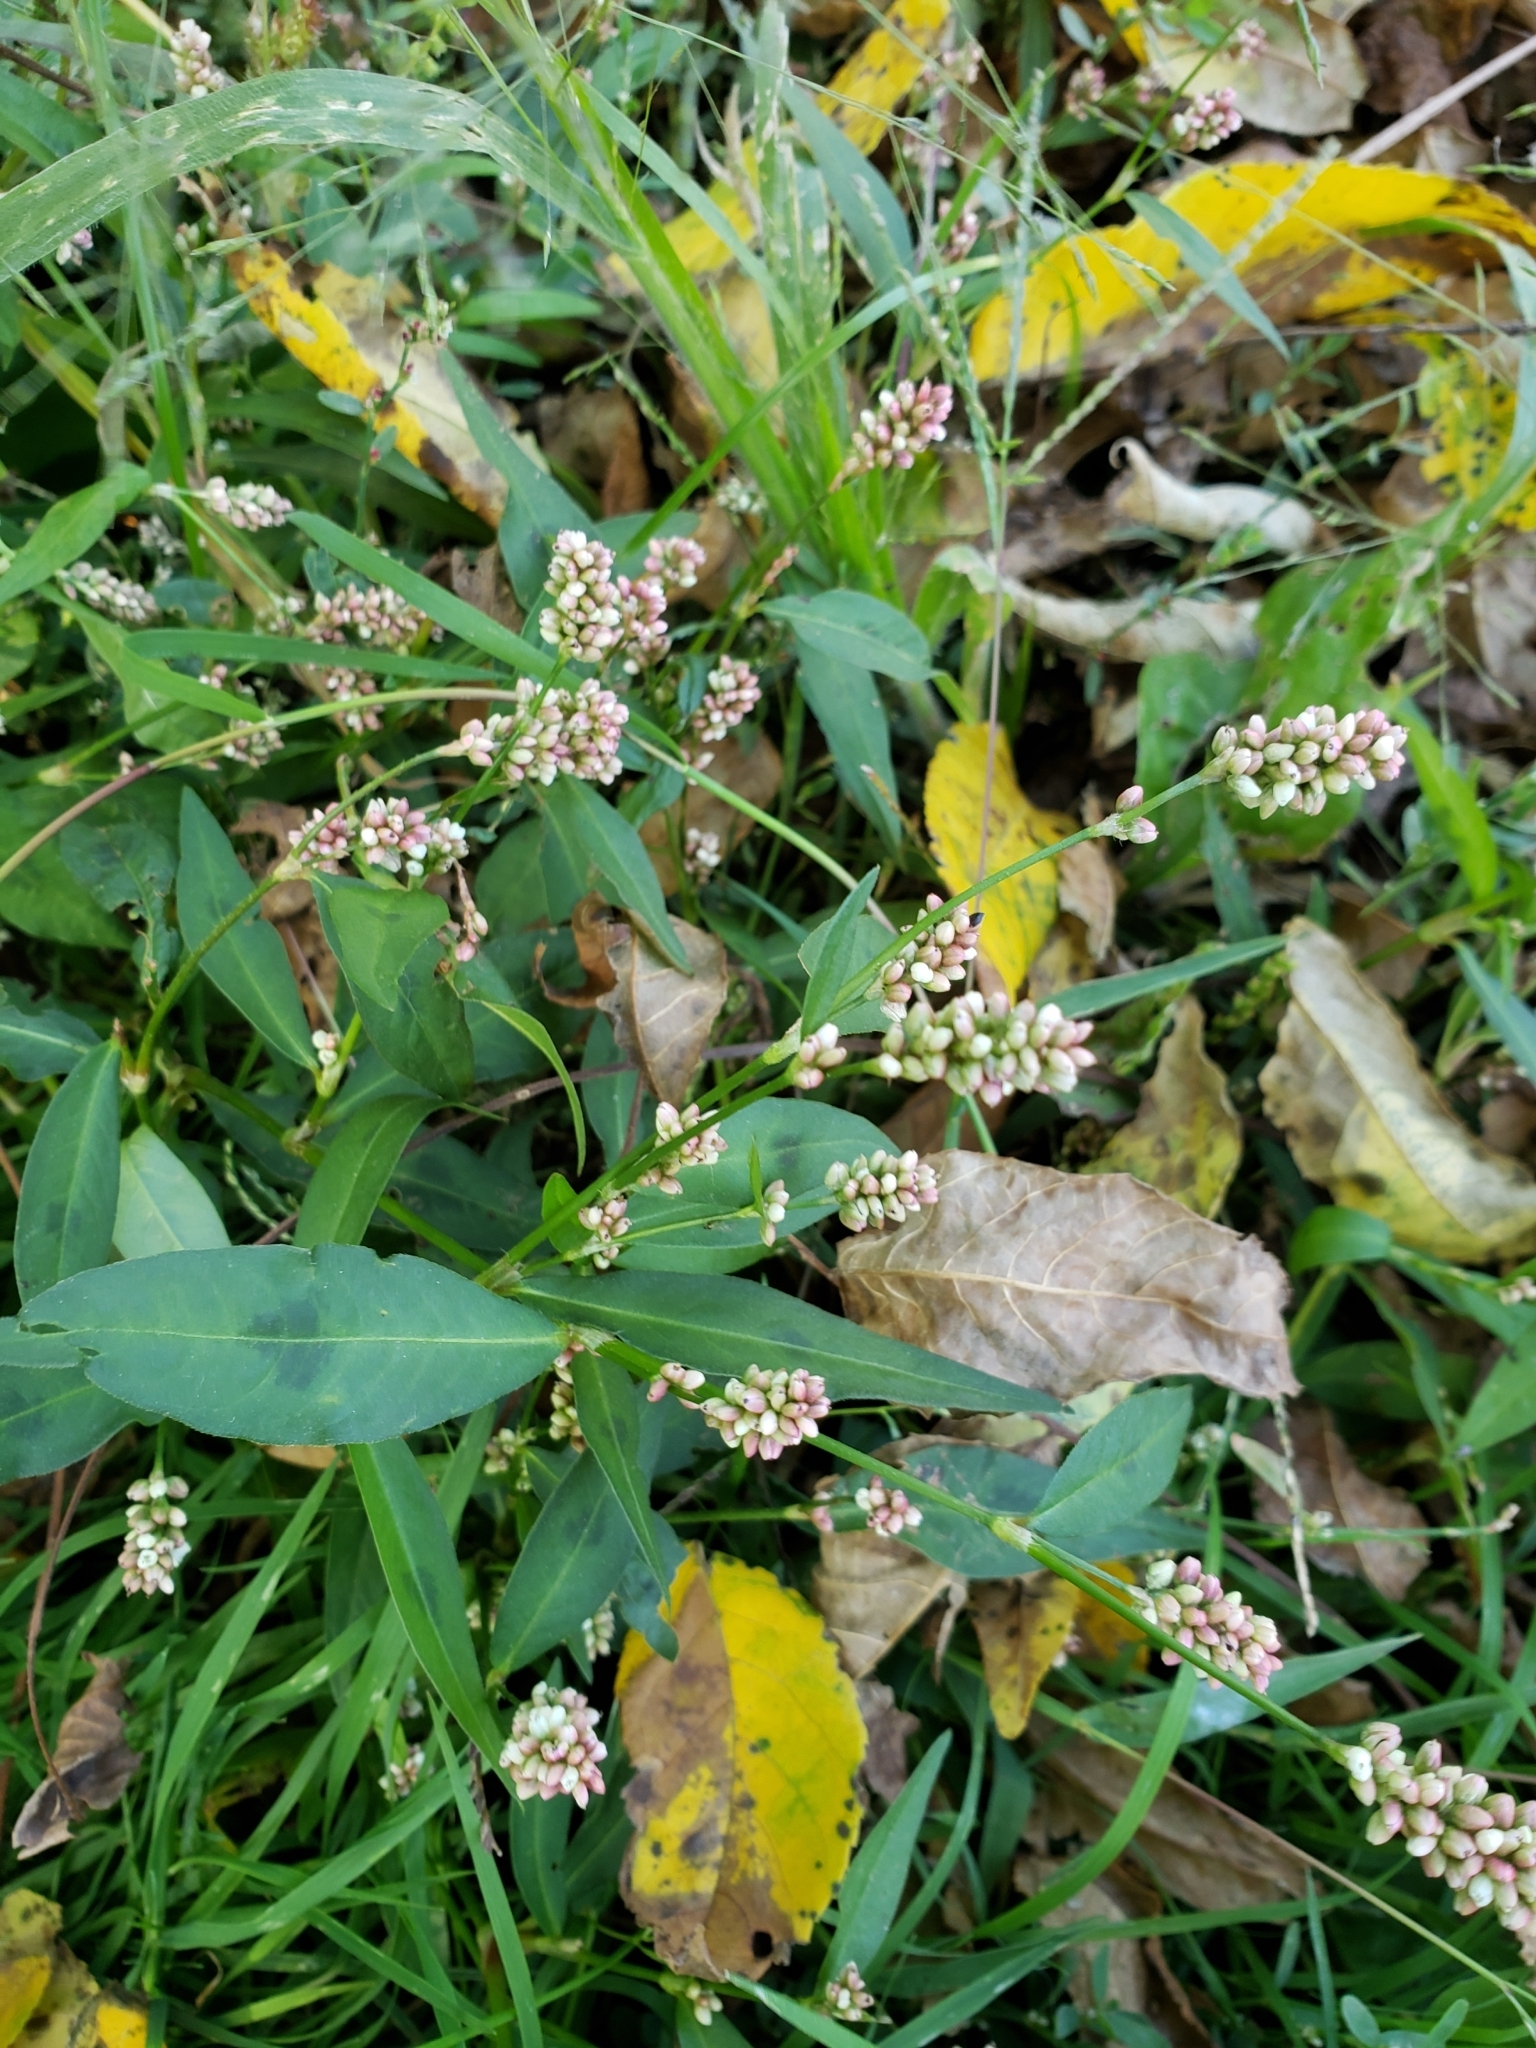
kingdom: Plantae
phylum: Tracheophyta
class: Magnoliopsida
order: Caryophyllales
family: Polygonaceae
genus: Persicaria
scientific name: Persicaria maculosa
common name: Redshank
